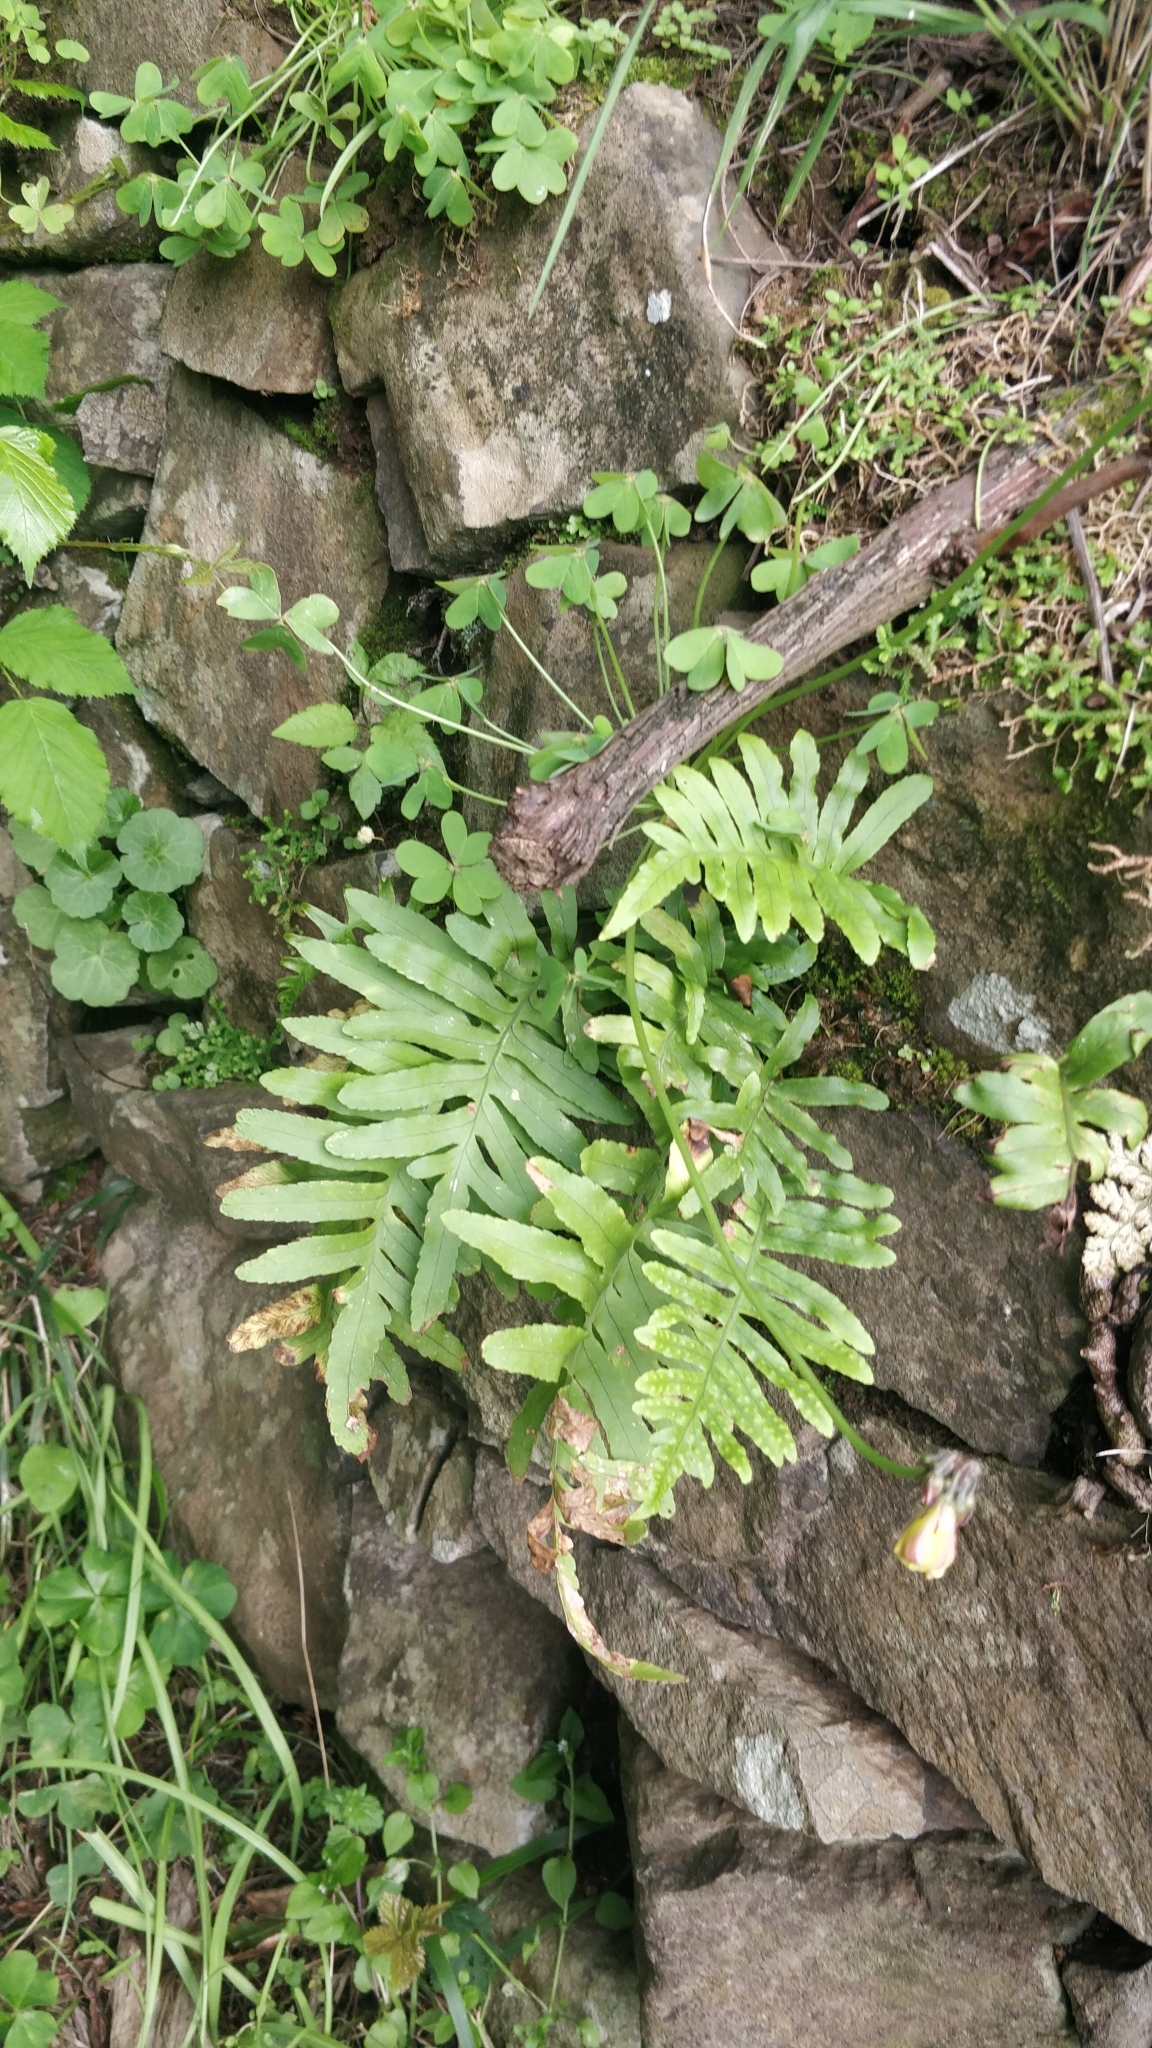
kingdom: Plantae
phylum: Tracheophyta
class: Polypodiopsida
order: Polypodiales
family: Polypodiaceae
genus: Polypodium
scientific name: Polypodium macaronesicum
